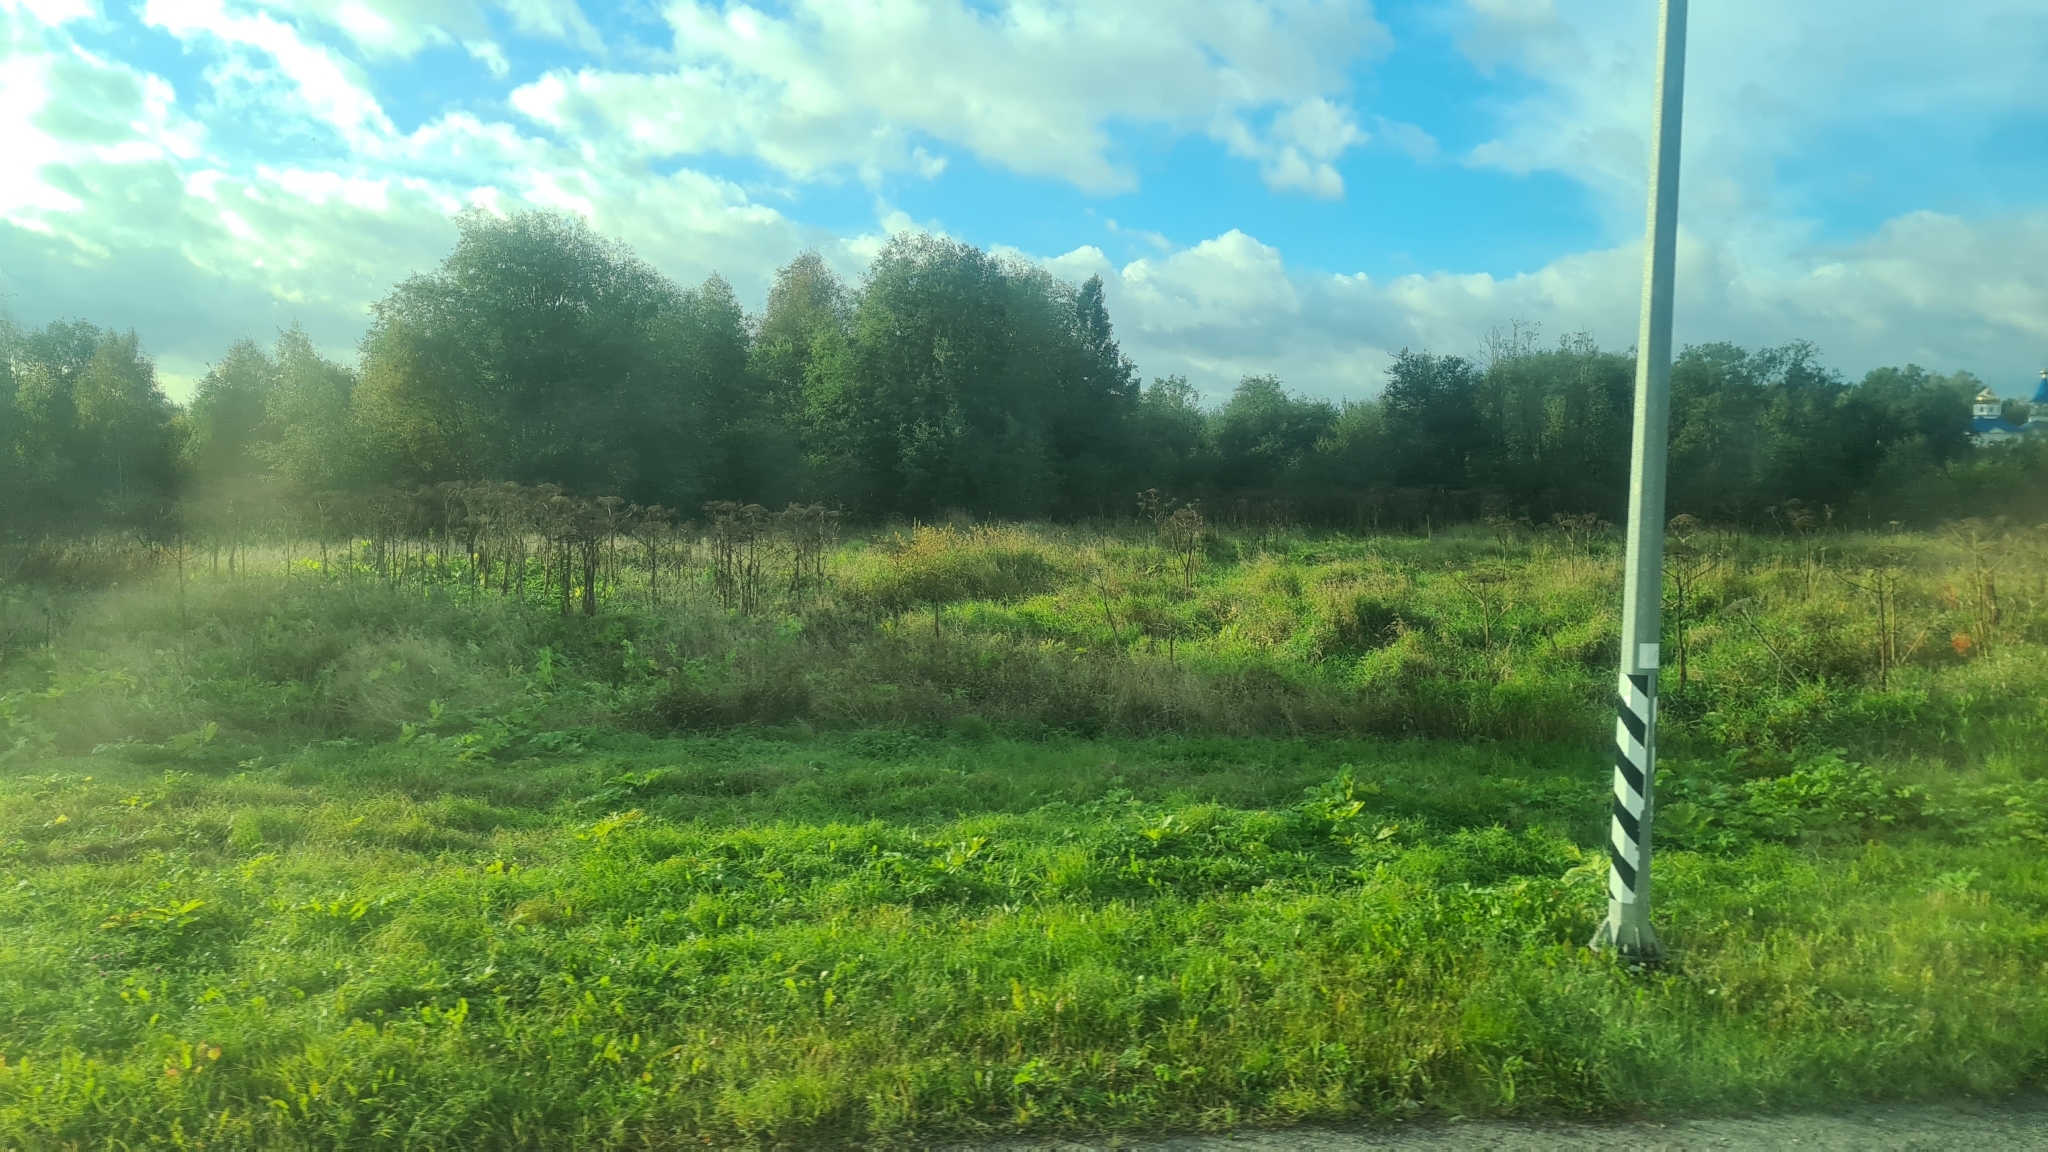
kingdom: Plantae
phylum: Tracheophyta
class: Magnoliopsida
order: Apiales
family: Apiaceae
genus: Heracleum
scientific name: Heracleum sosnowskyi
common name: Sosnowsky's hogweed
